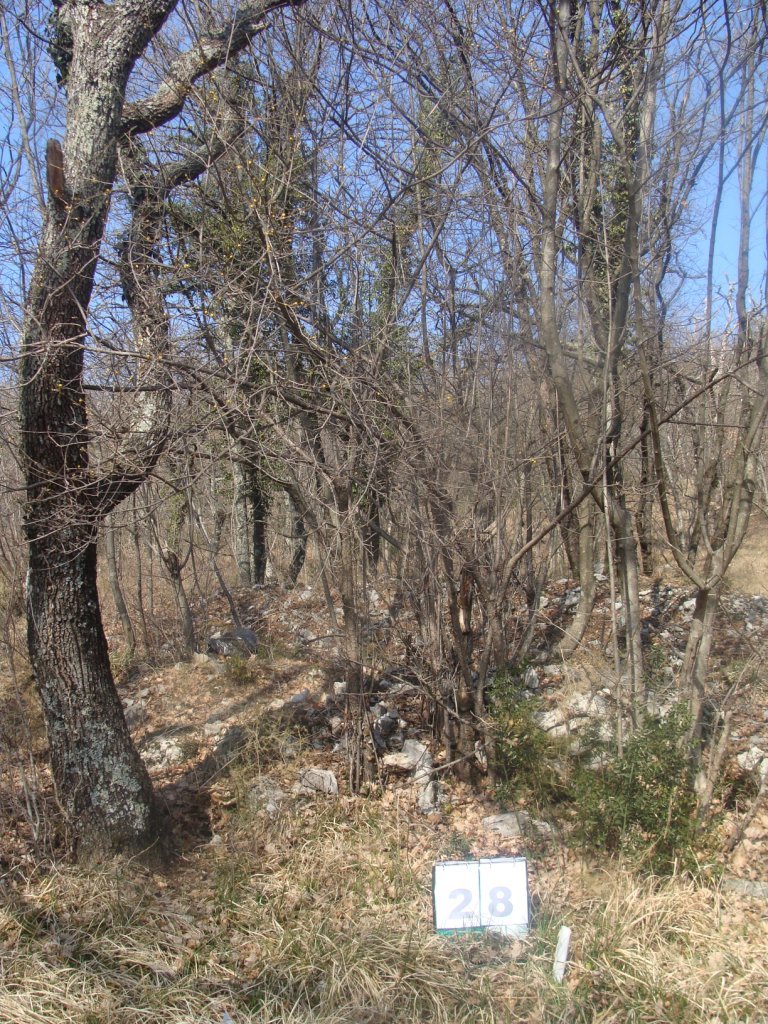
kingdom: Plantae
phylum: Tracheophyta
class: Magnoliopsida
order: Cornales
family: Cornaceae
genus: Cornus
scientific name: Cornus mas
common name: Cornelian-cherry
